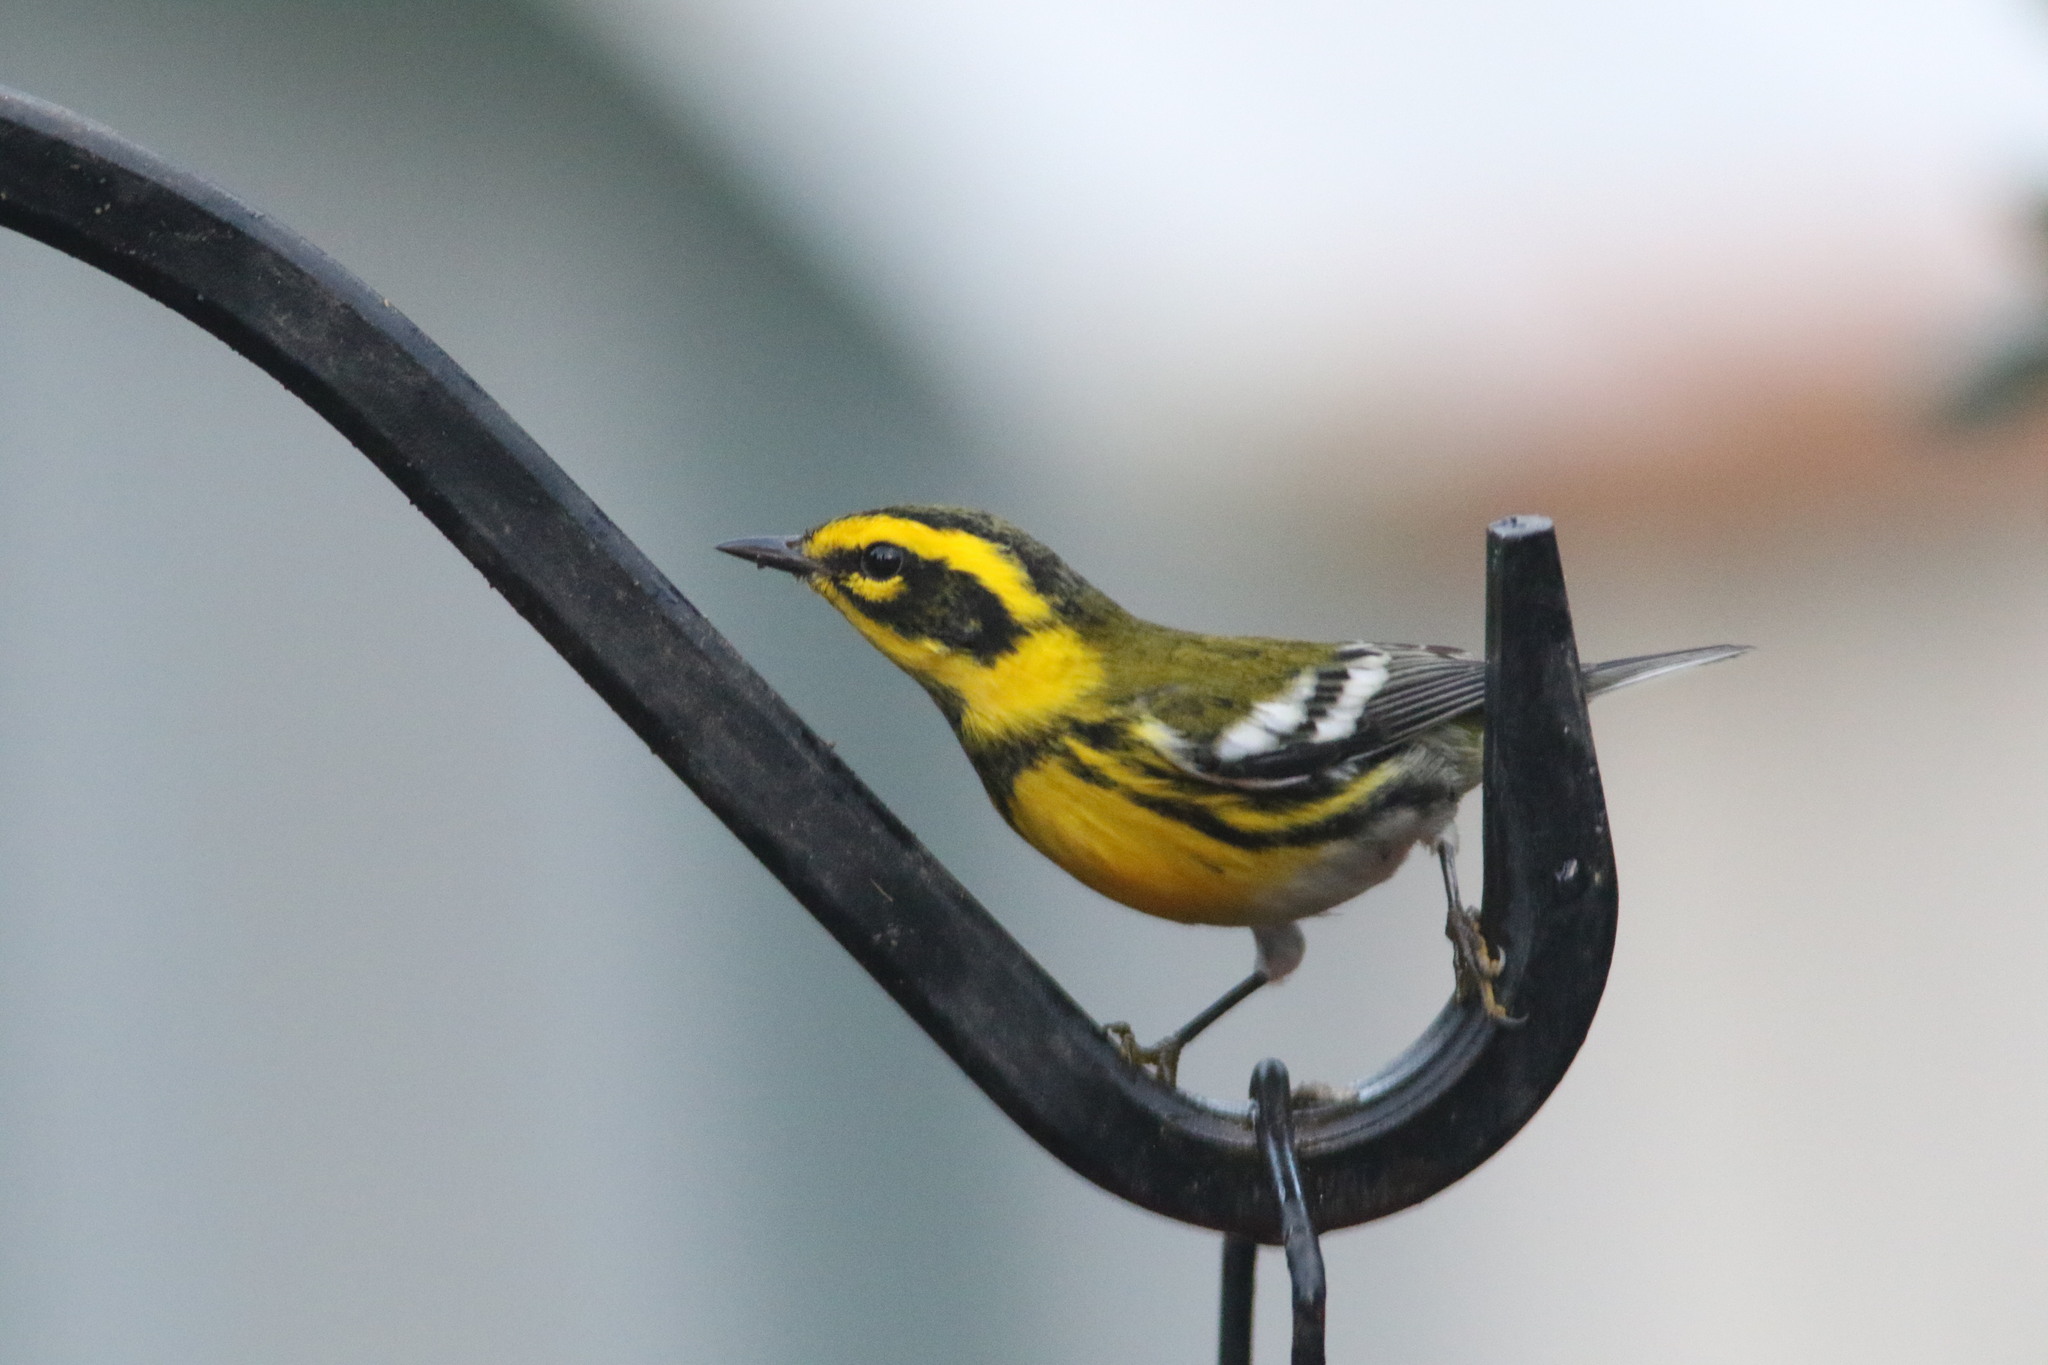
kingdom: Animalia
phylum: Chordata
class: Aves
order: Passeriformes
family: Parulidae
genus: Setophaga
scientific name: Setophaga townsendi
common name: Townsend's warbler
